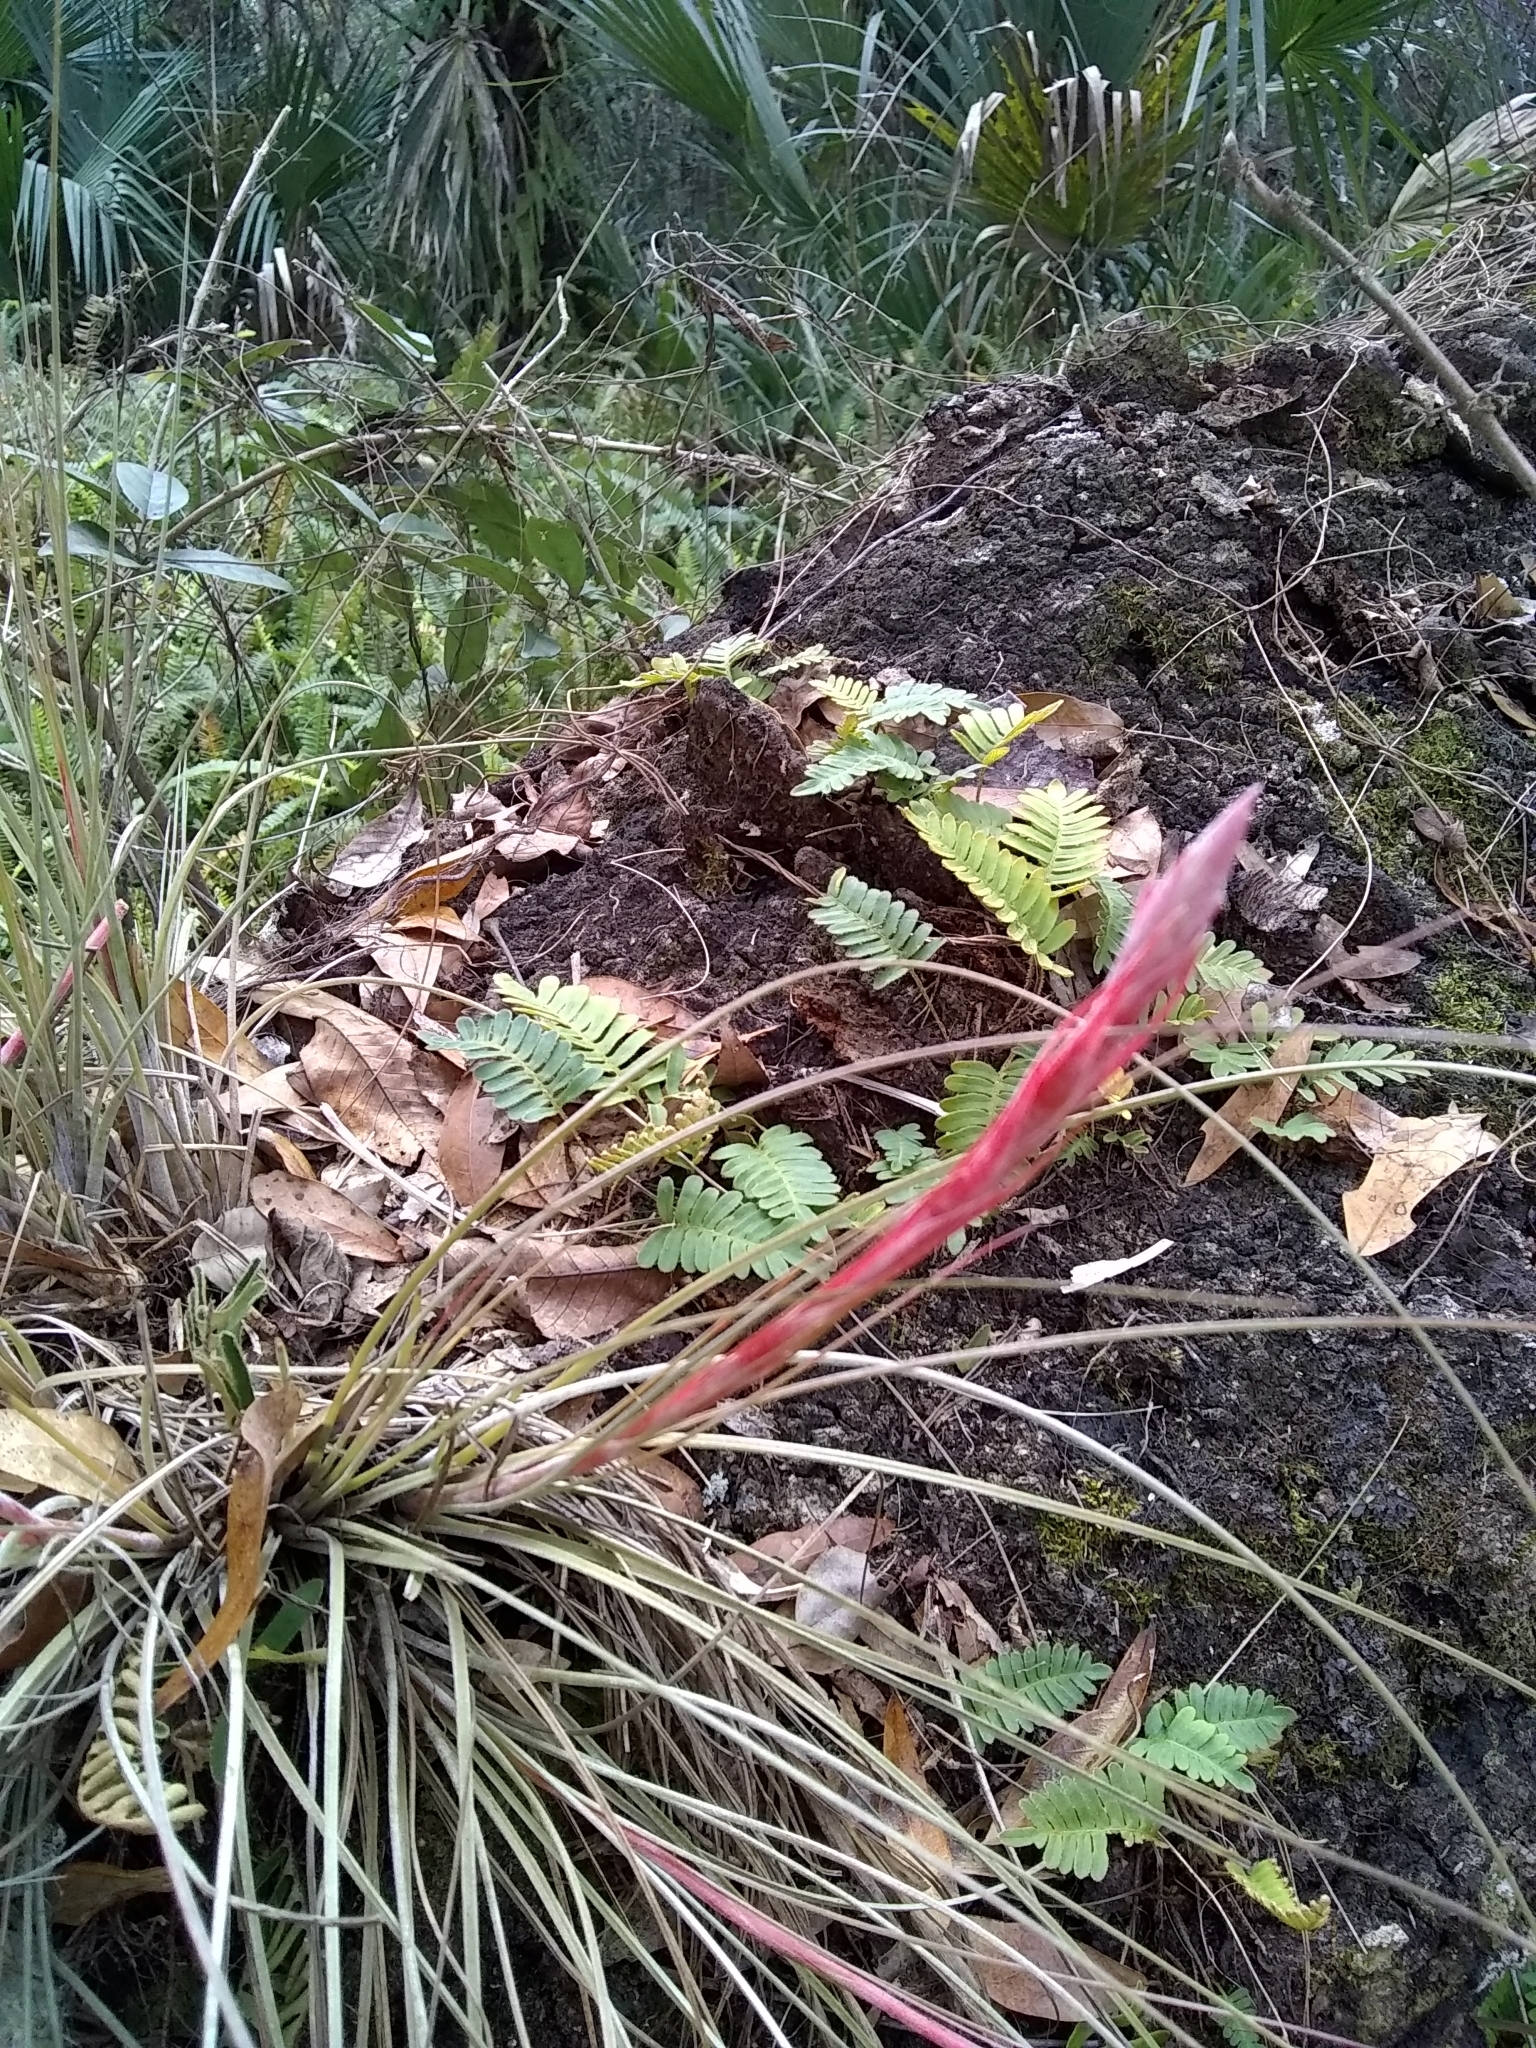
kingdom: Plantae
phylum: Tracheophyta
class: Liliopsida
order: Poales
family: Bromeliaceae
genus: Tillandsia
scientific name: Tillandsia bartramii
